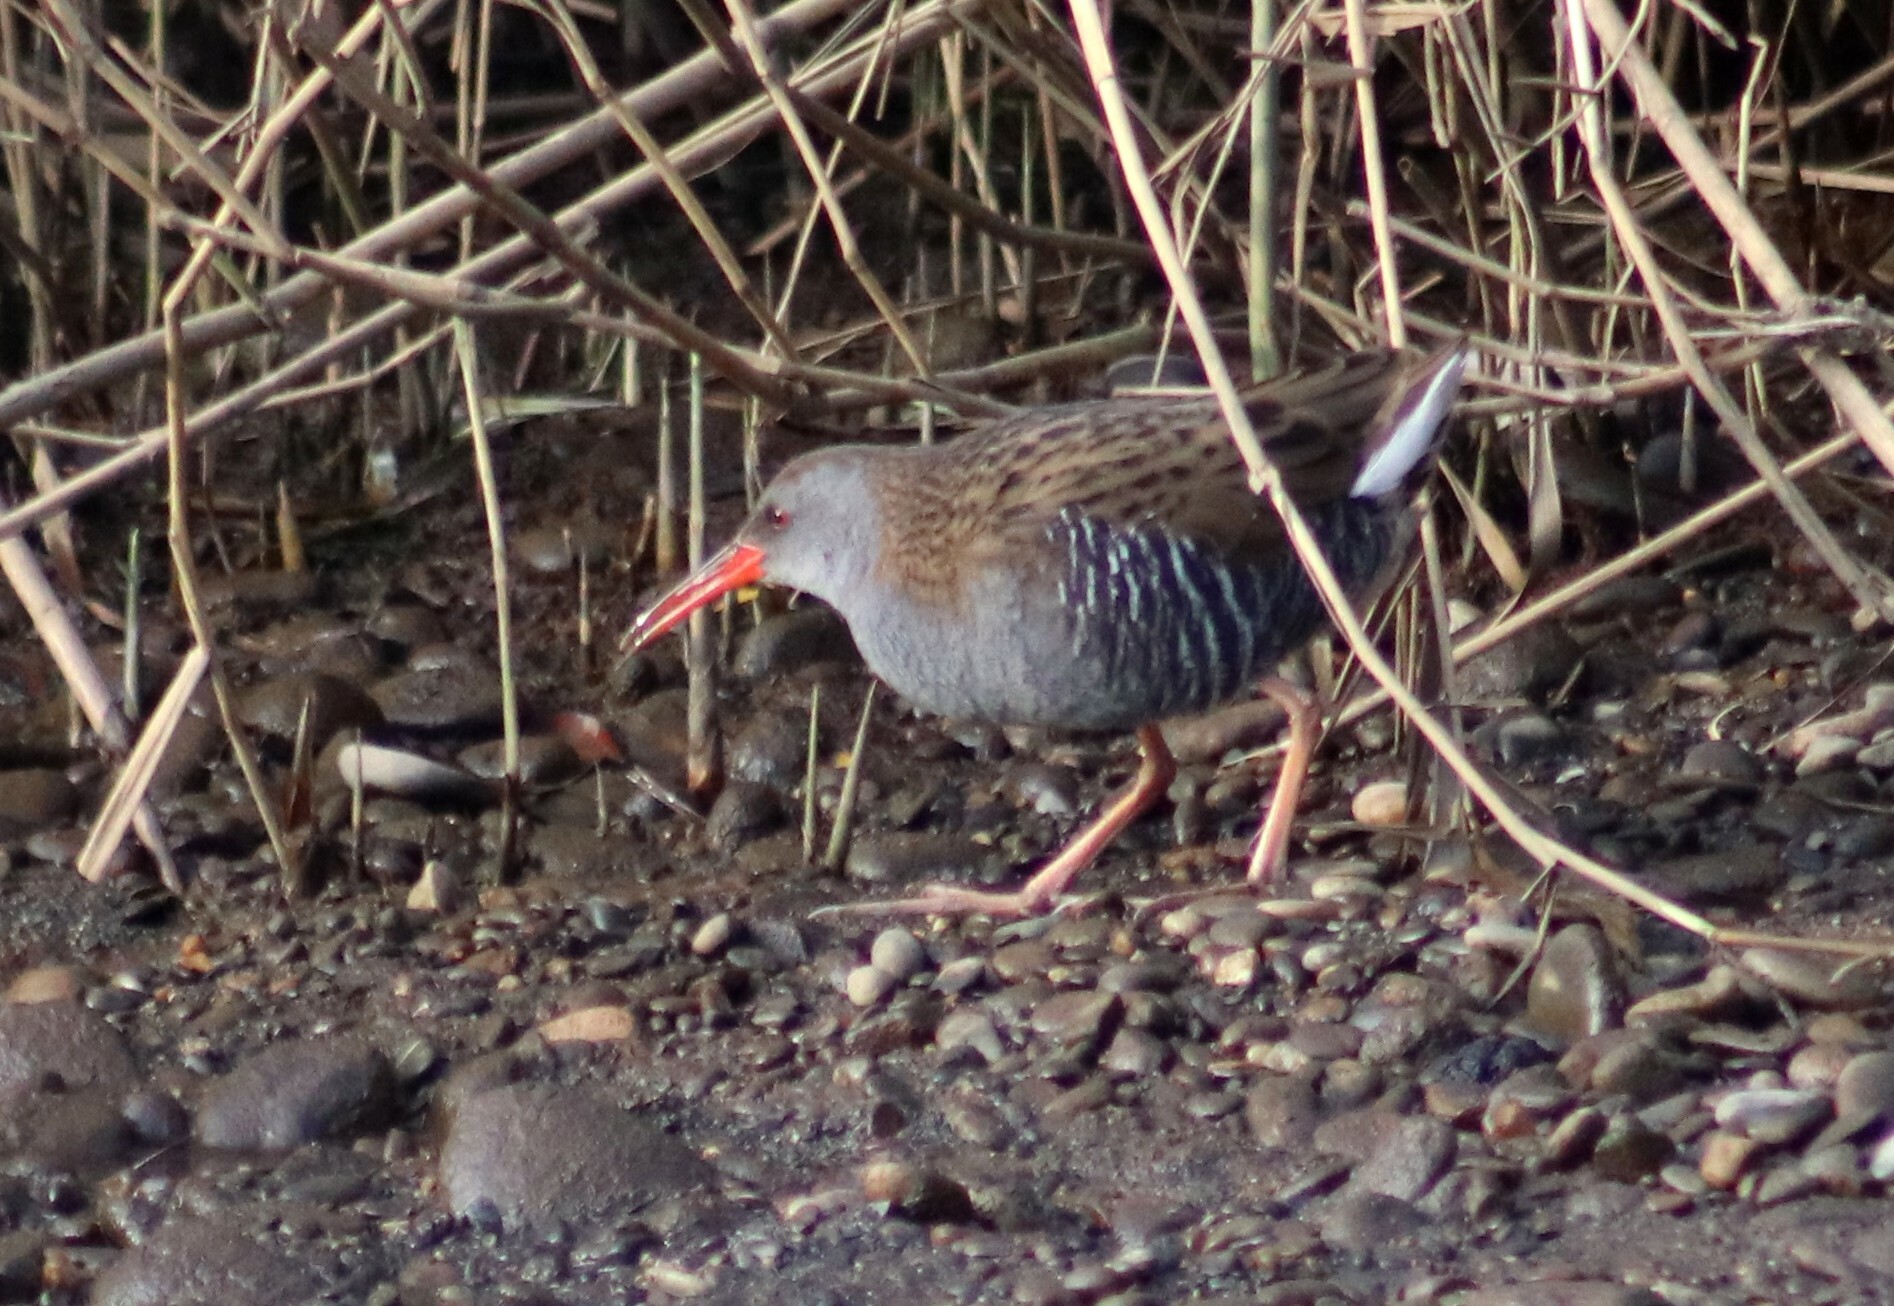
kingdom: Animalia
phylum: Chordata
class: Aves
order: Gruiformes
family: Rallidae
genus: Rallus
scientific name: Rallus aquaticus
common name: Water rail
